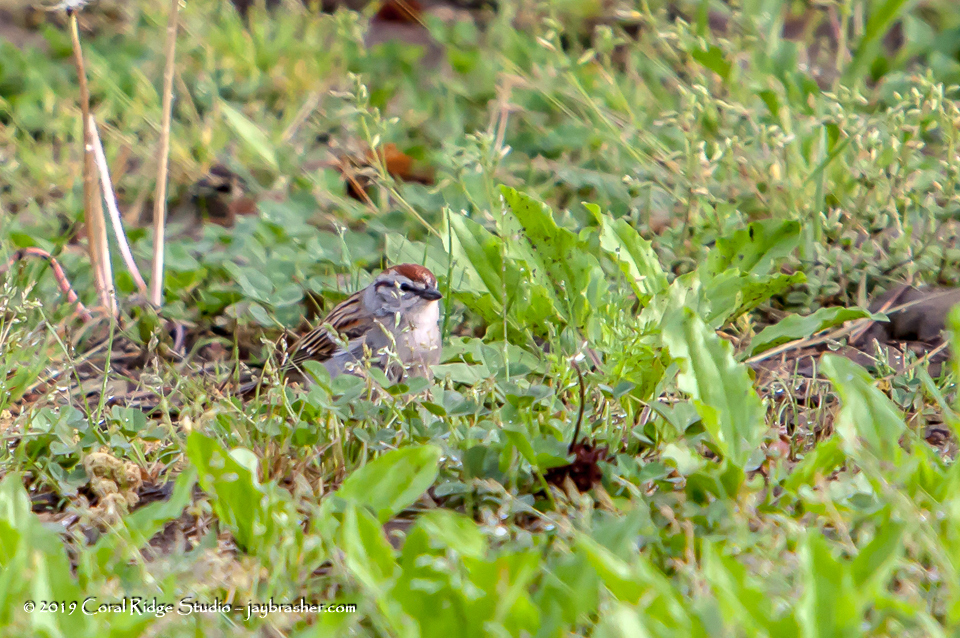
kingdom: Animalia
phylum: Chordata
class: Aves
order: Passeriformes
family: Passerellidae
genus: Spizella
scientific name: Spizella passerina
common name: Chipping sparrow
